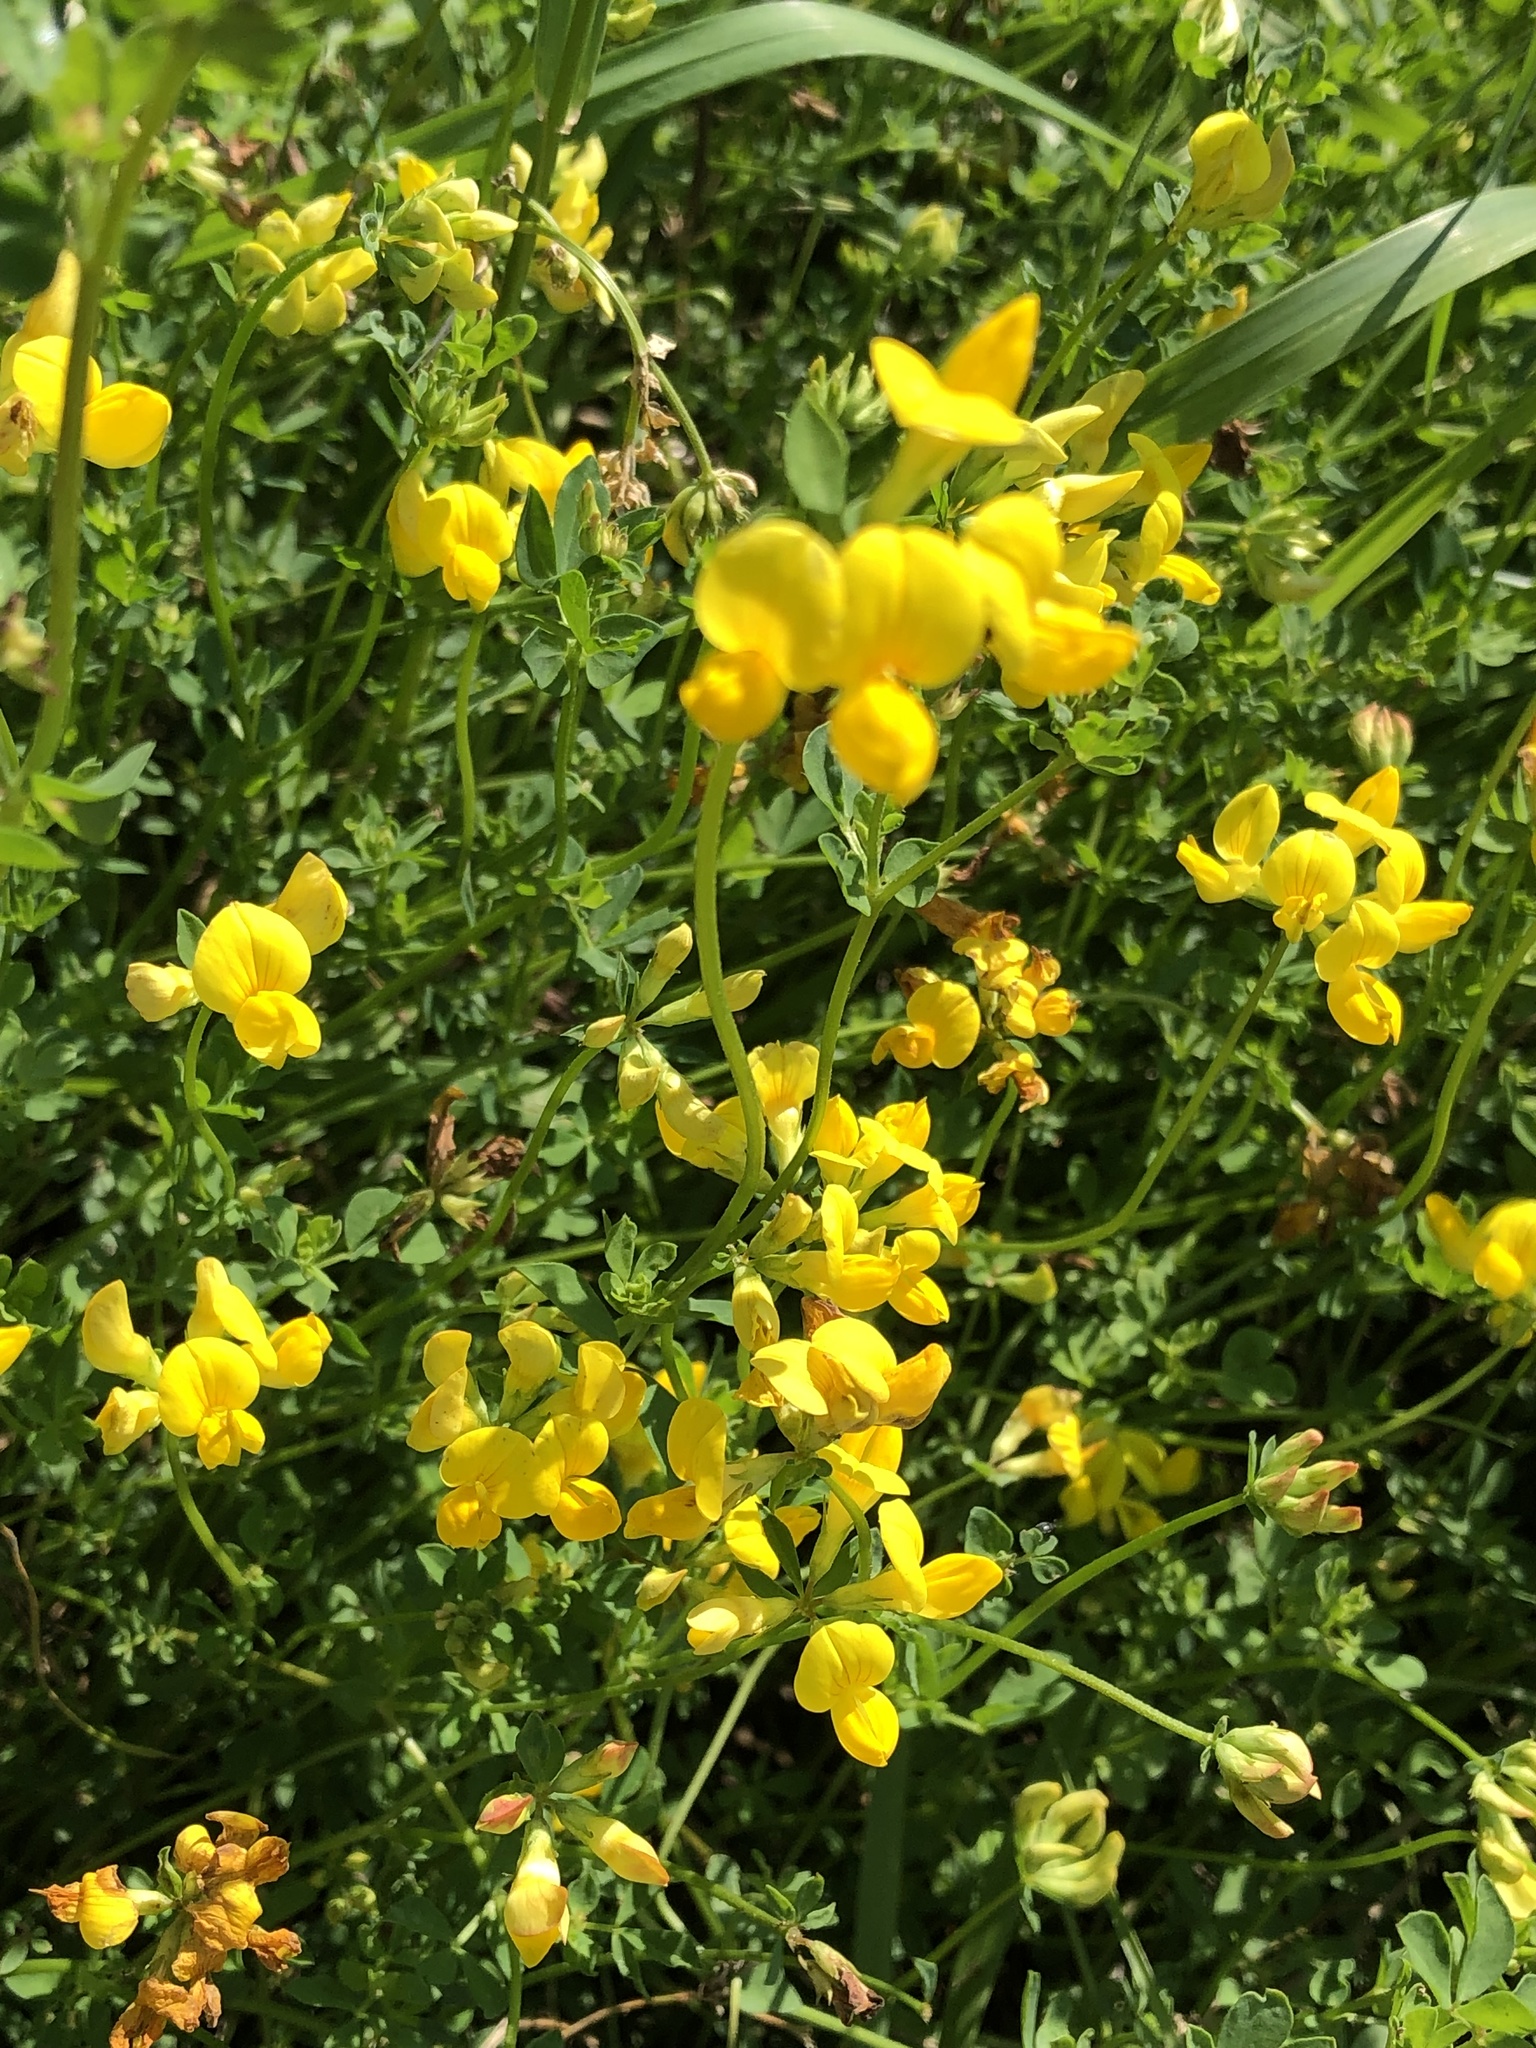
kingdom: Plantae
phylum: Tracheophyta
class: Magnoliopsida
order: Fabales
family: Fabaceae
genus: Lotus
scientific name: Lotus corniculatus
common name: Common bird's-foot-trefoil
